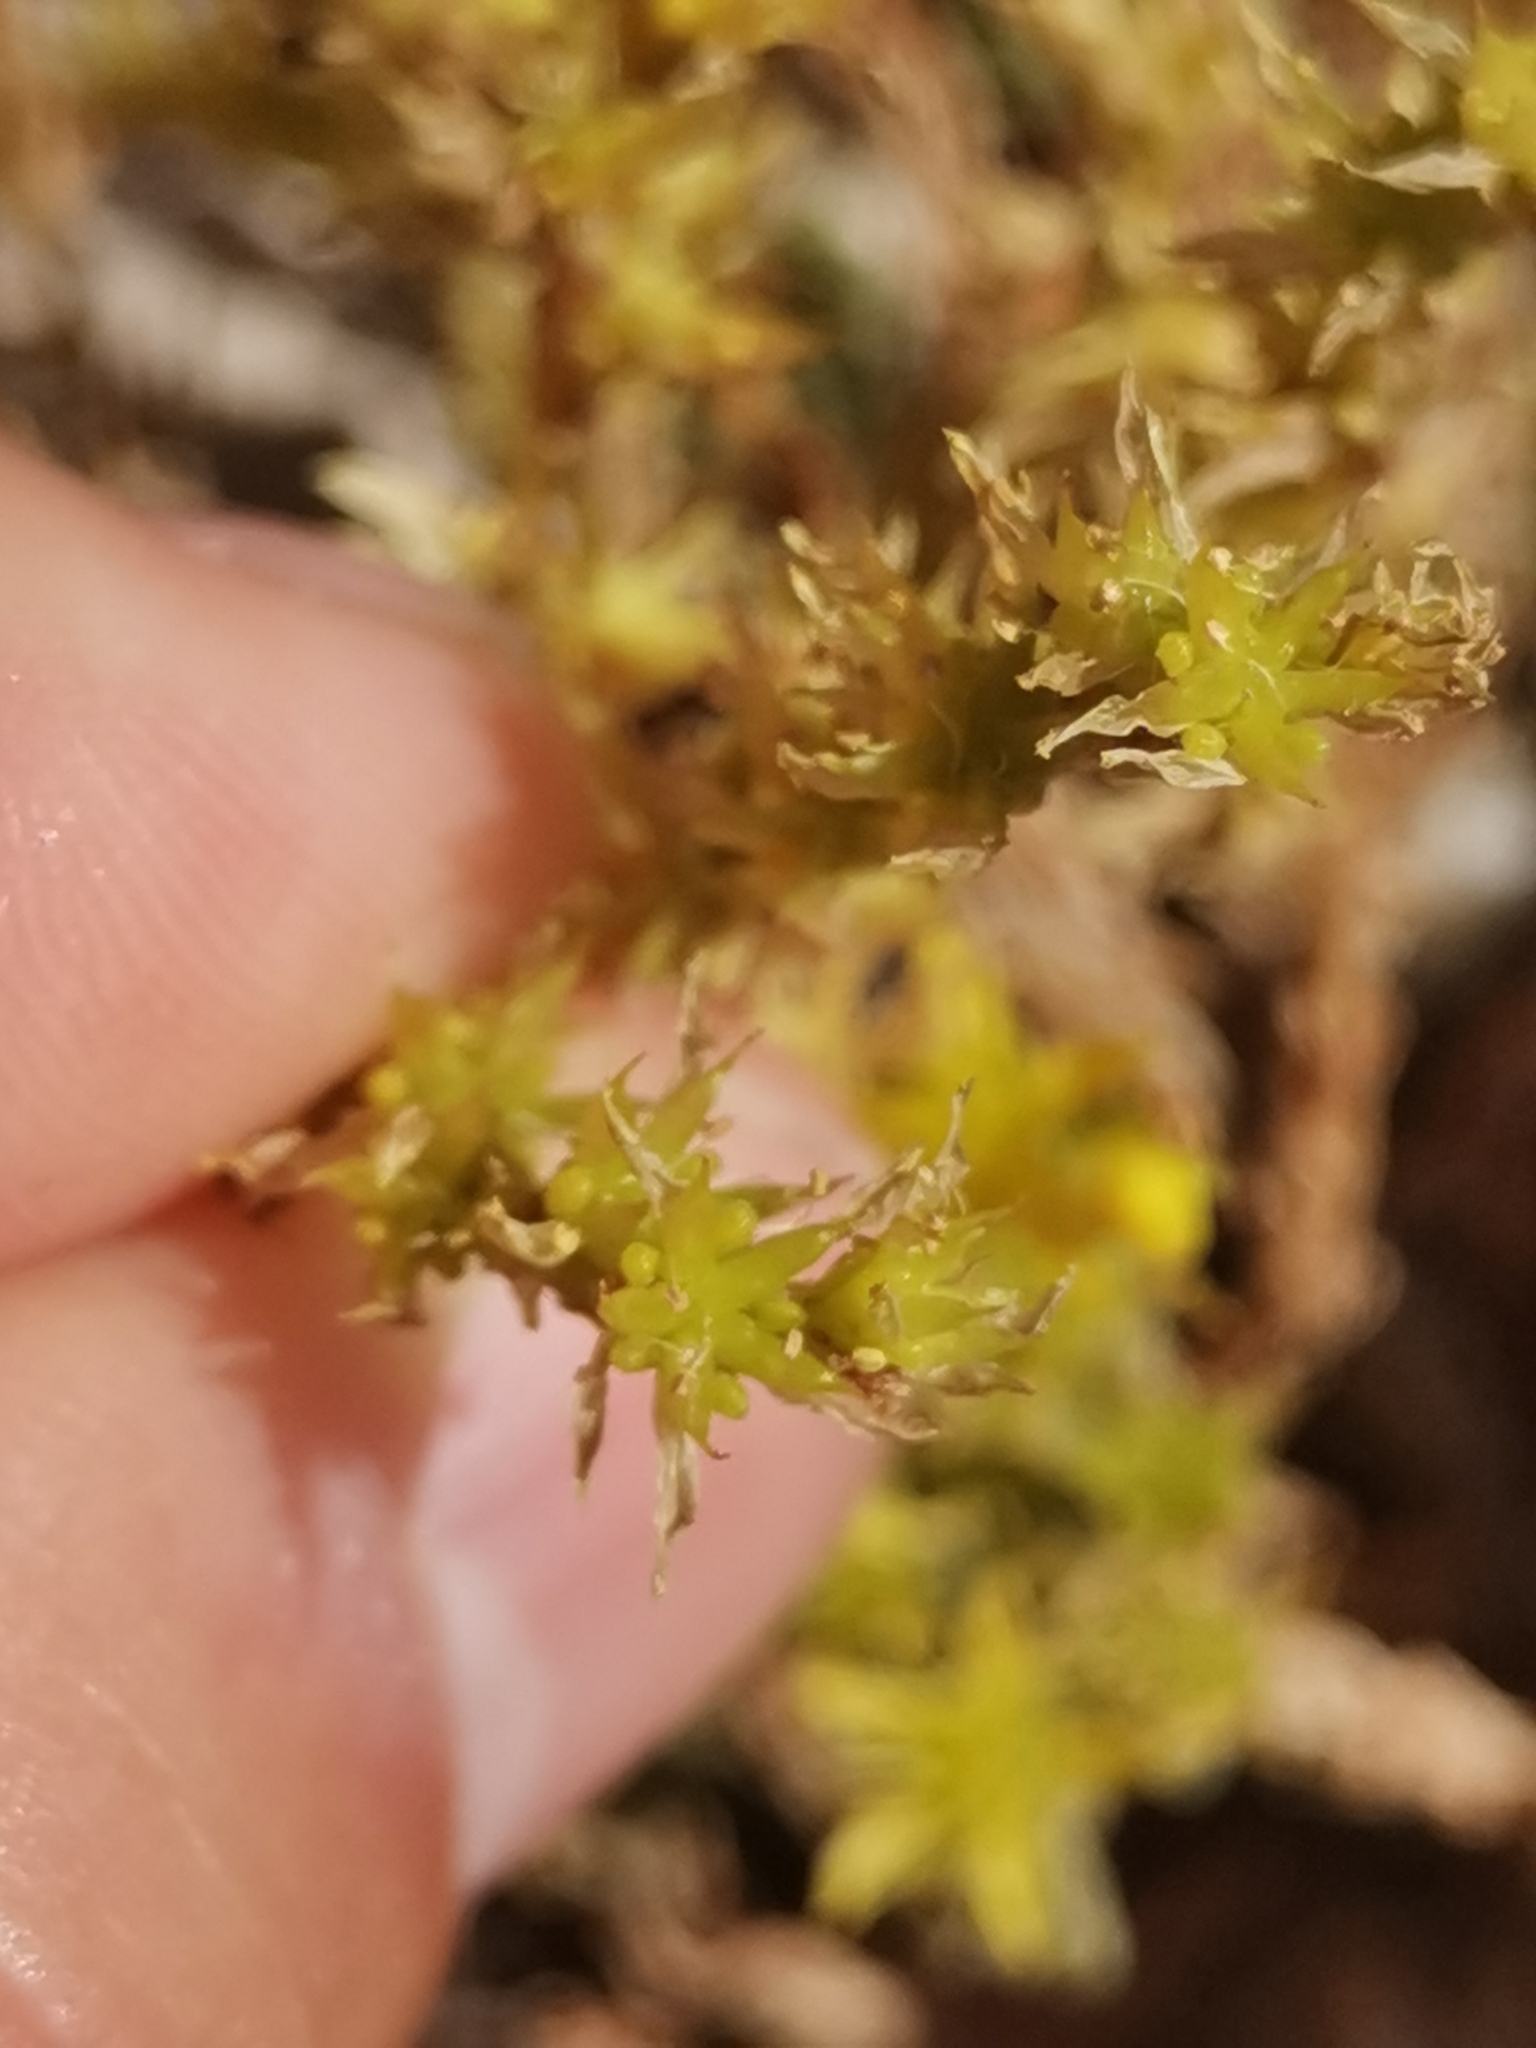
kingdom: Plantae
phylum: Tracheophyta
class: Magnoliopsida
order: Saxifragales
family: Crassulaceae
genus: Sedum
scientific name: Sedum sexangulare
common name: Tasteless stonecrop
